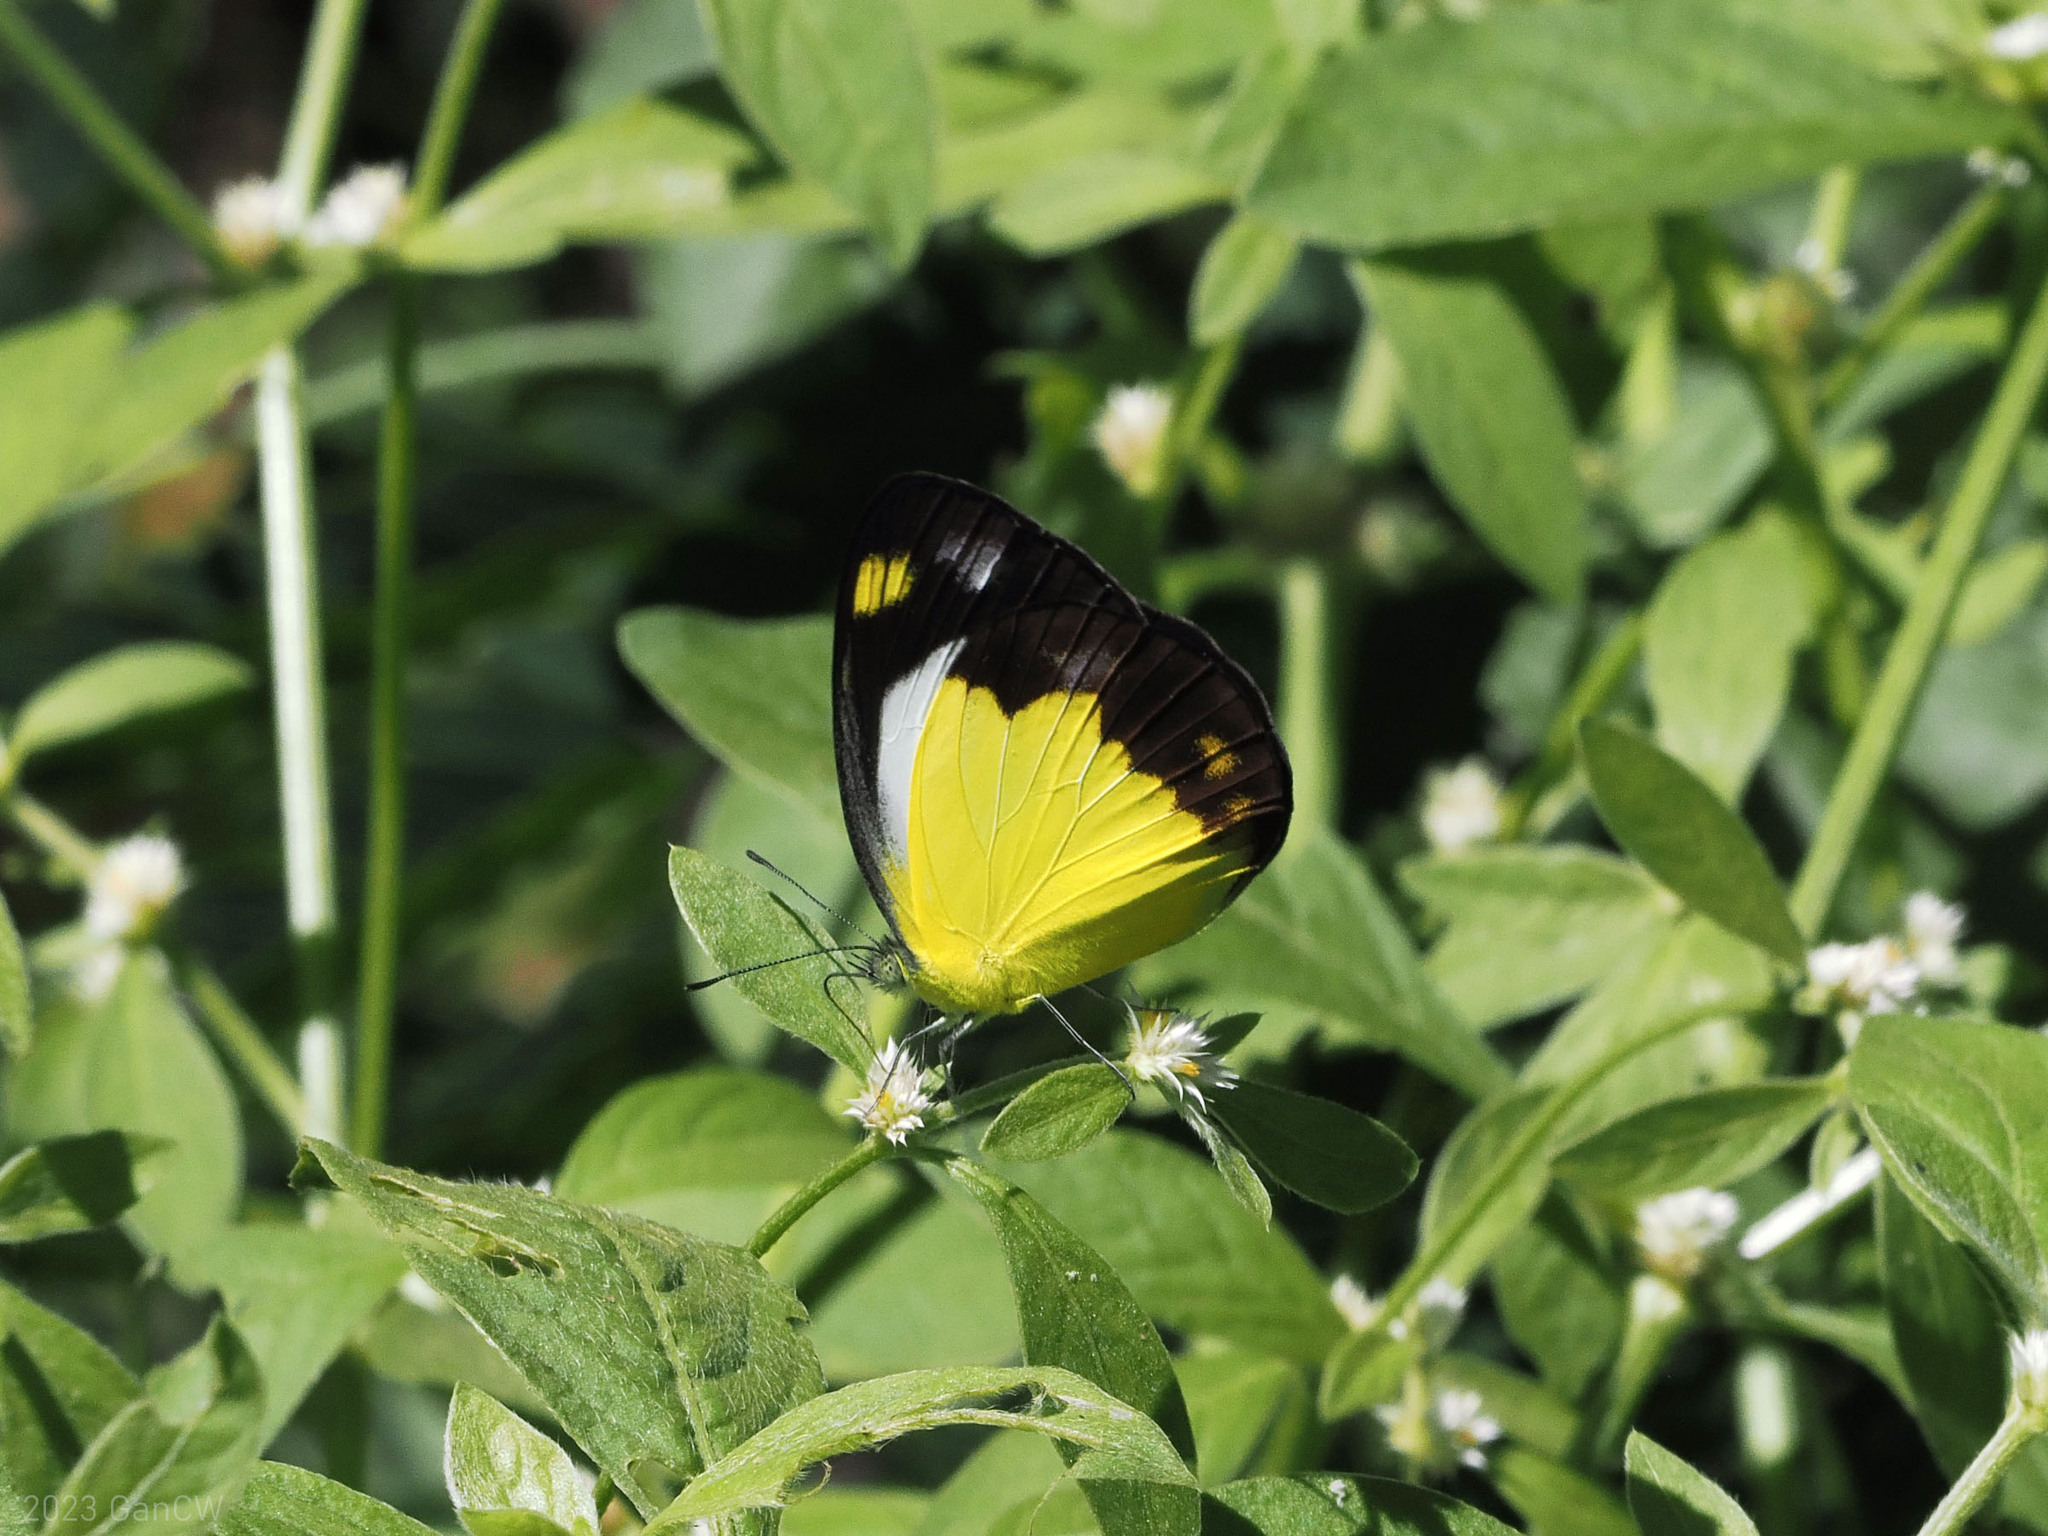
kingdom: Animalia
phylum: Arthropoda
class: Insecta
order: Lepidoptera
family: Pieridae
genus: Cepora
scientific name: Cepora boisduvaliana
